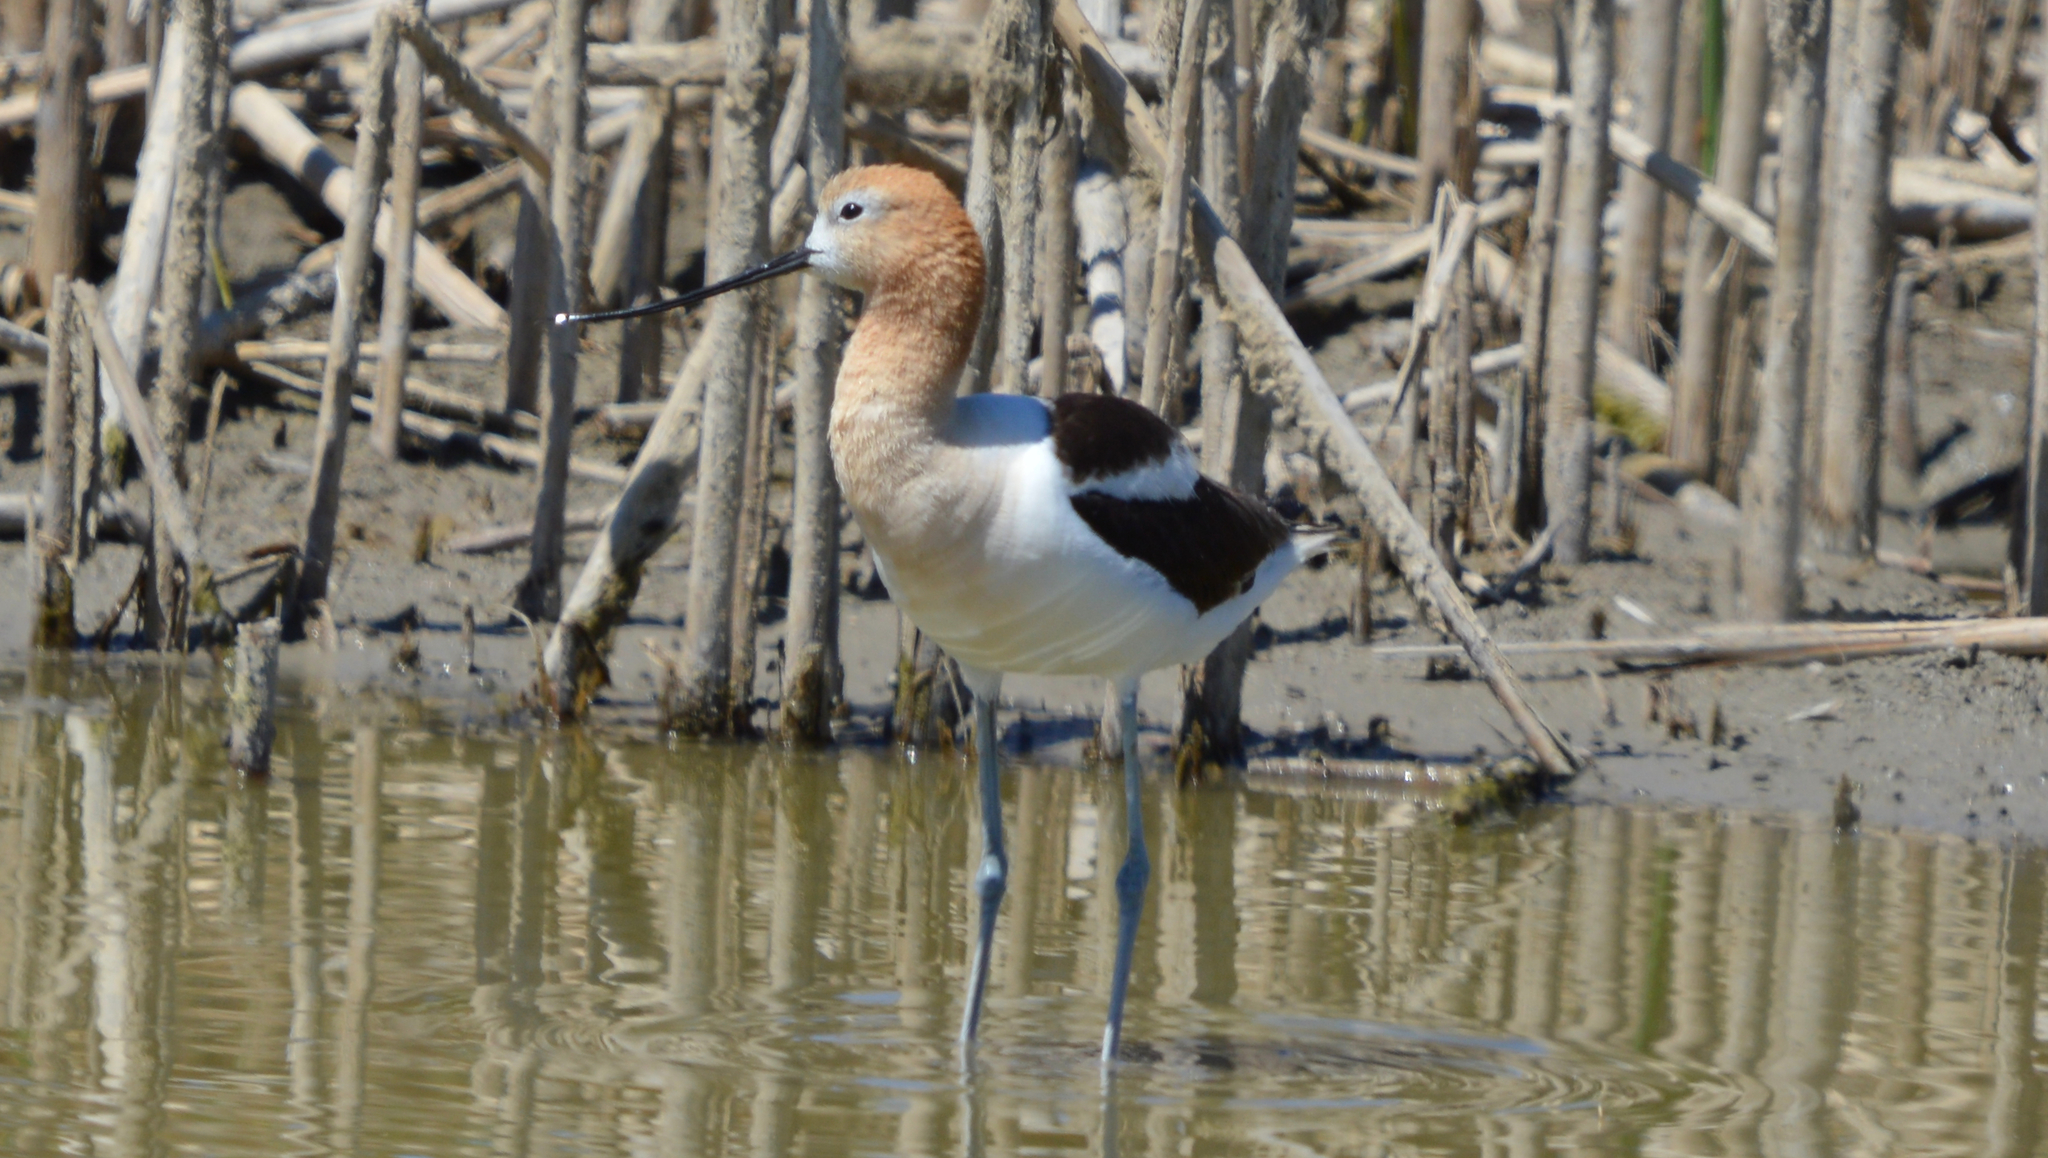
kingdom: Animalia
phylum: Chordata
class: Aves
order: Charadriiformes
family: Recurvirostridae
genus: Recurvirostra
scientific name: Recurvirostra americana
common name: American avocet
